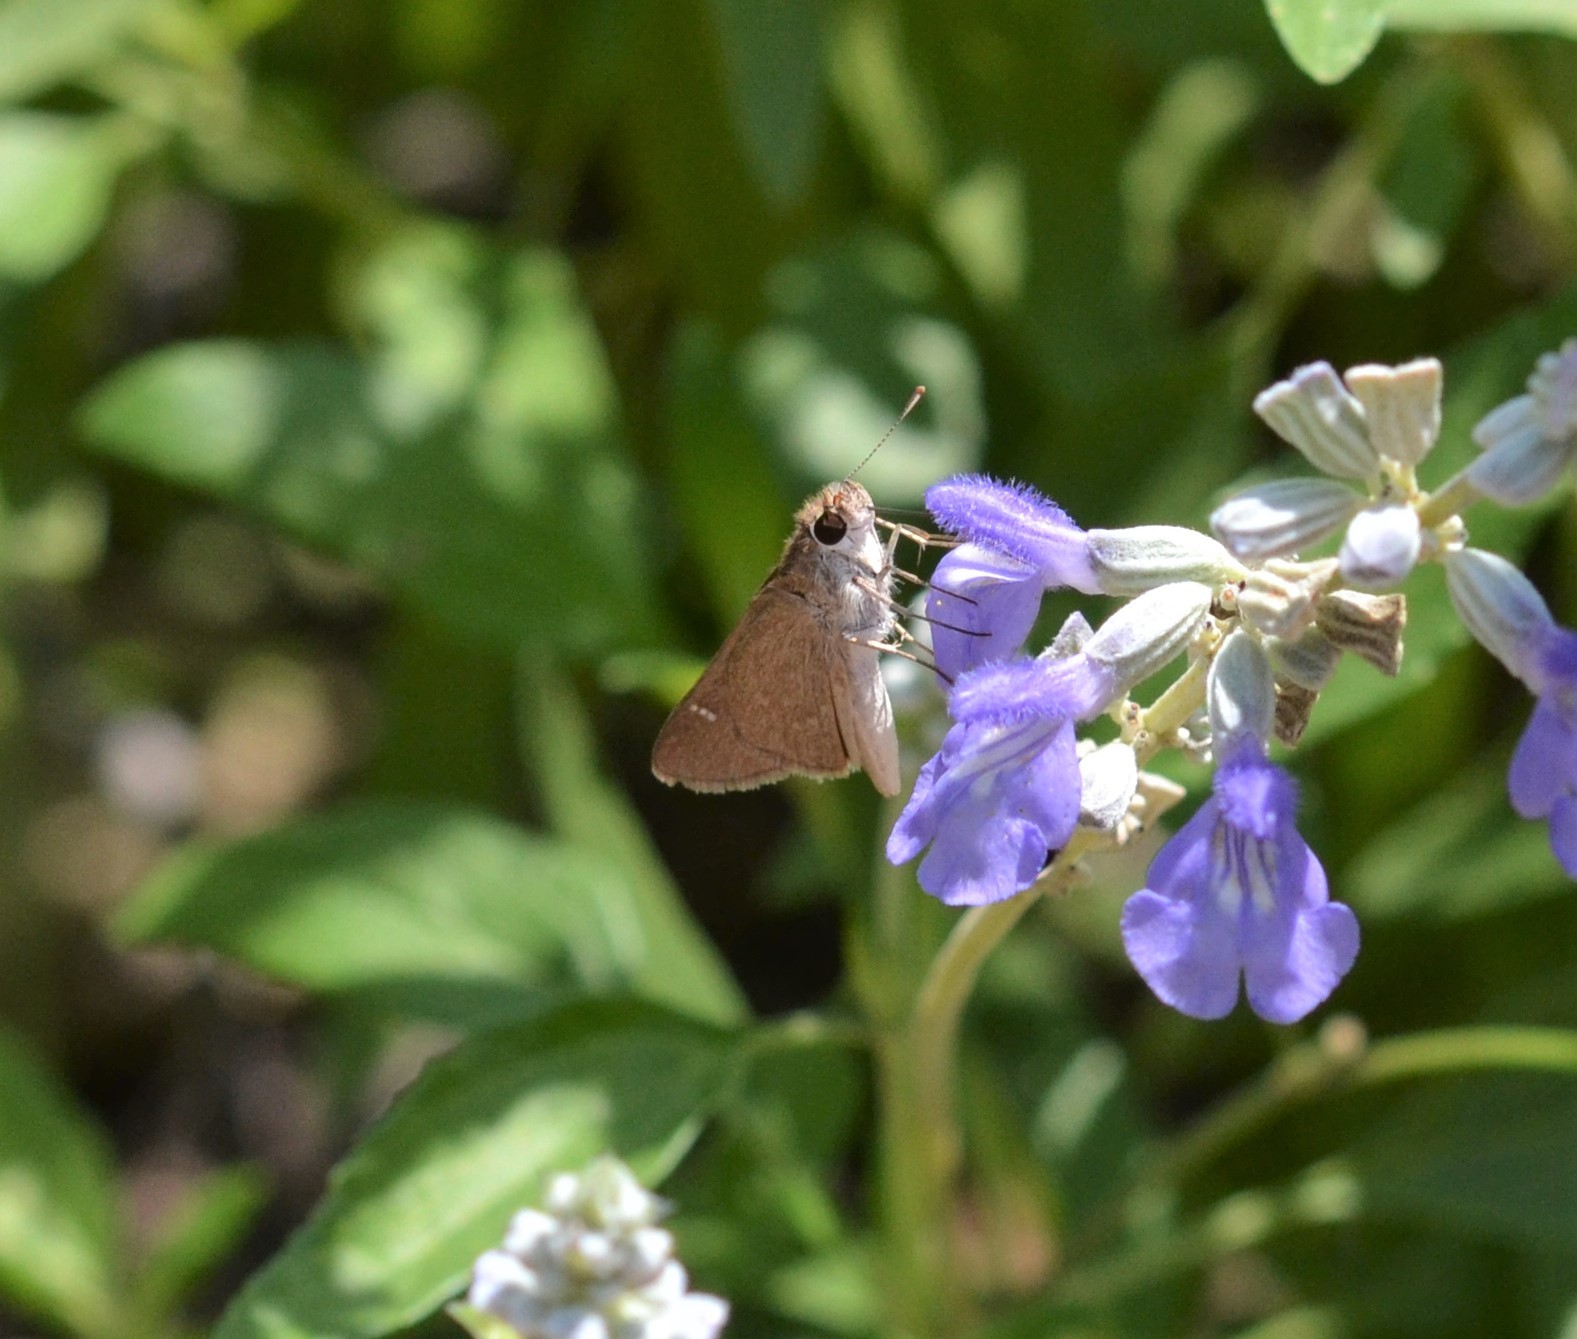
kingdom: Animalia
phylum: Arthropoda
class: Insecta
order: Lepidoptera
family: Hesperiidae
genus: Lerodea
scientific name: Lerodea eufala
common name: Eufala skipper
